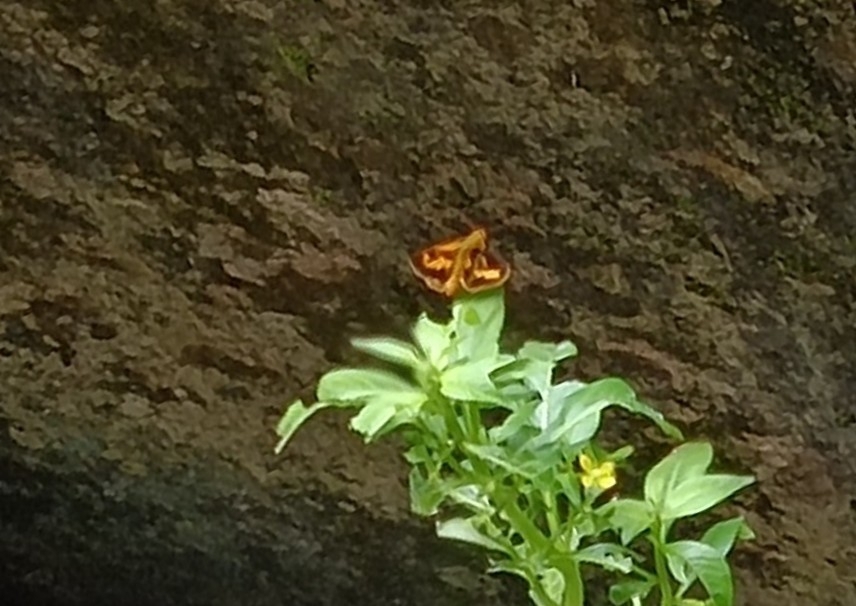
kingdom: Animalia
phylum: Arthropoda
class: Insecta
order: Lepidoptera
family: Hesperiidae
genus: Oriens
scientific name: Oriens goloides
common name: Smaller dartlet
